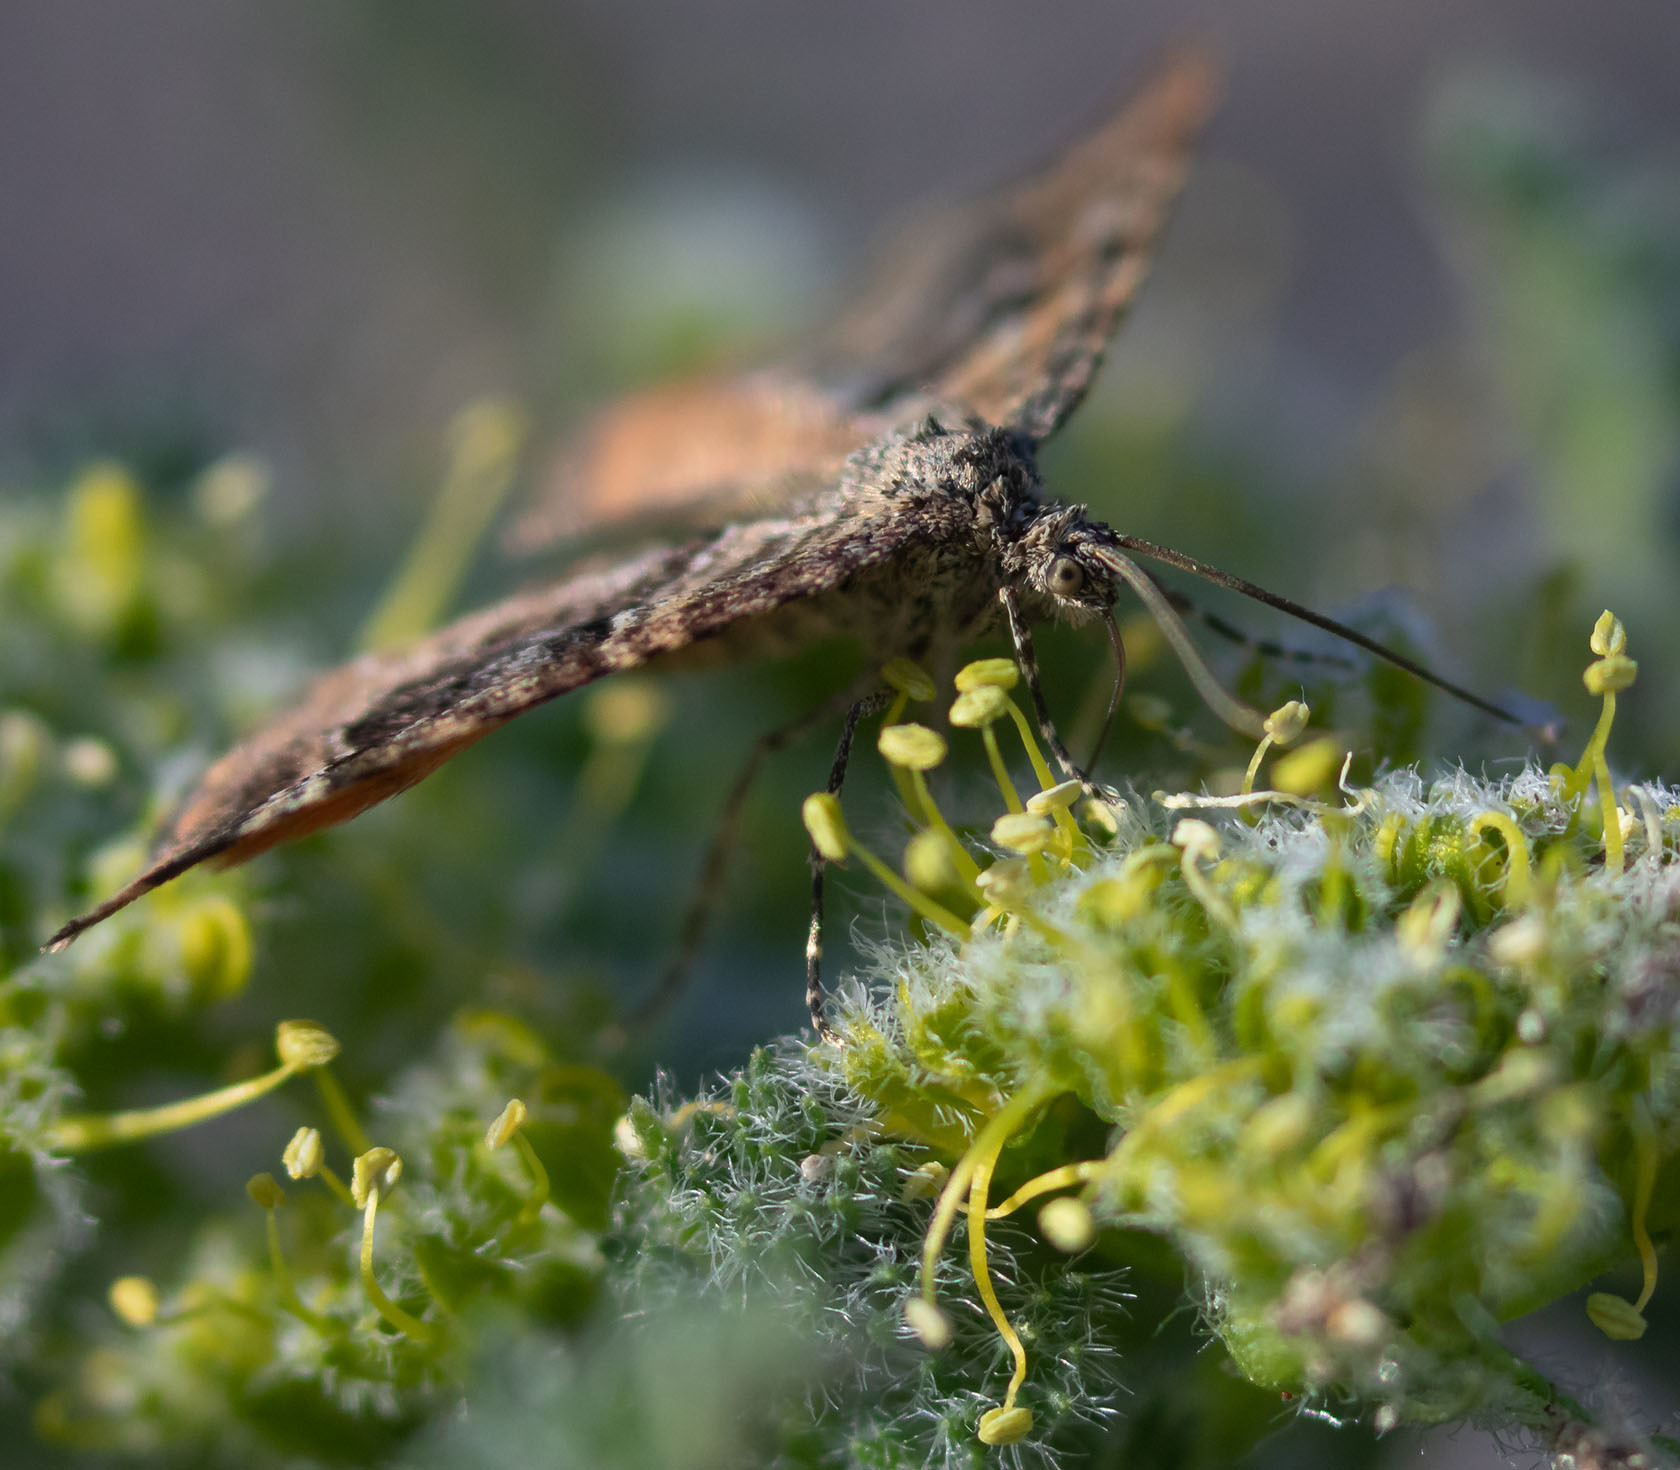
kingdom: Animalia
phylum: Arthropoda
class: Insecta
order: Lepidoptera
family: Geometridae
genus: Epirrhoe
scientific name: Epirrhoe plebeculata
